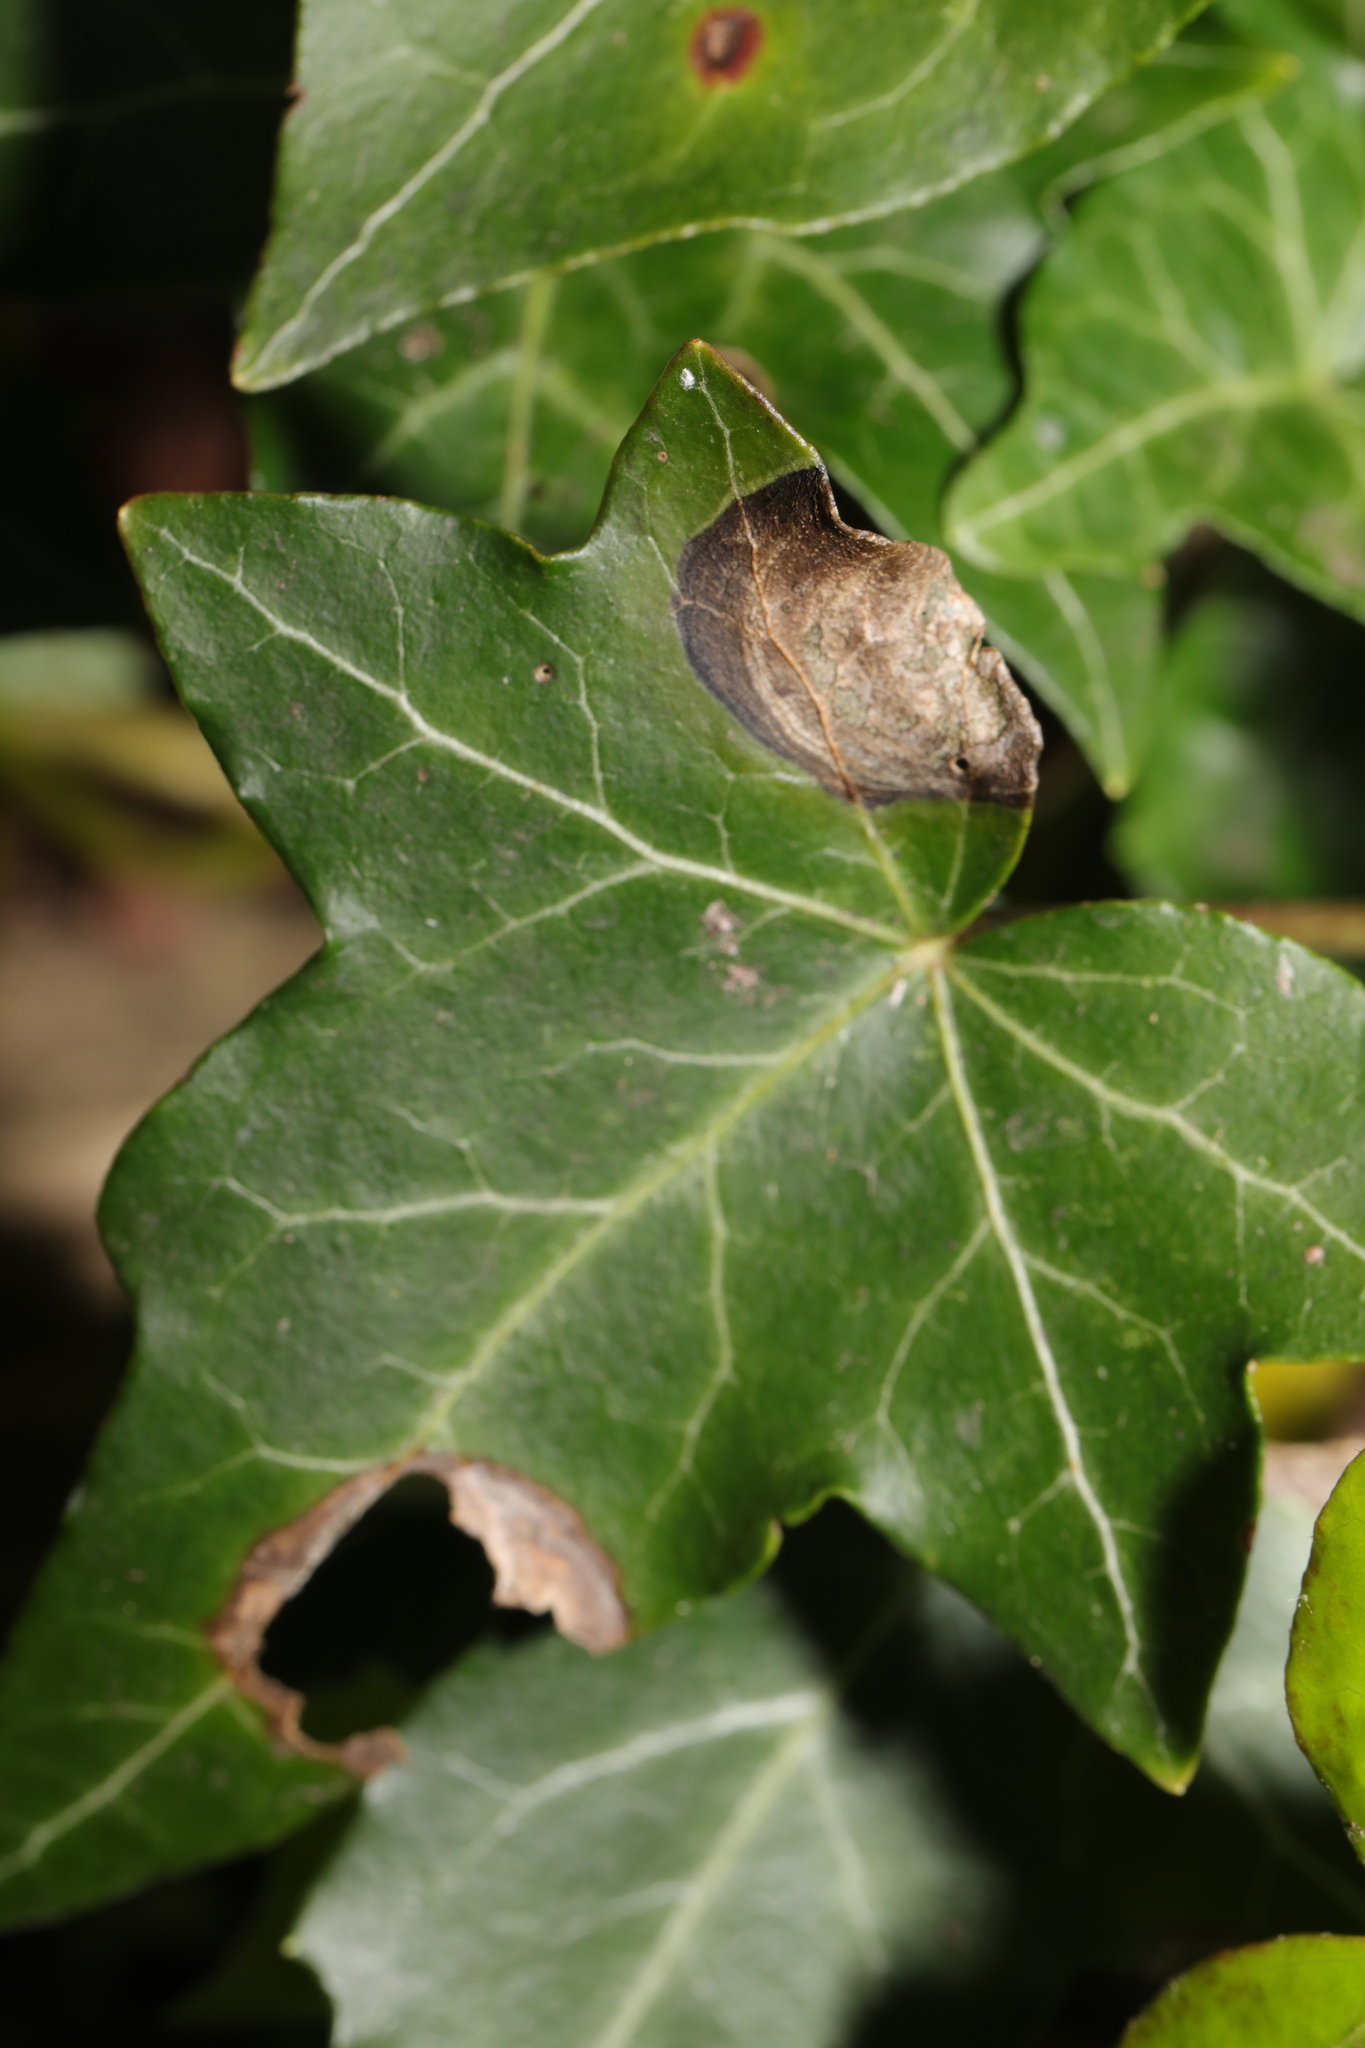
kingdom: Plantae
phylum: Tracheophyta
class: Magnoliopsida
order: Apiales
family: Araliaceae
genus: Hedera
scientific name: Hedera helix
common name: Ivy
